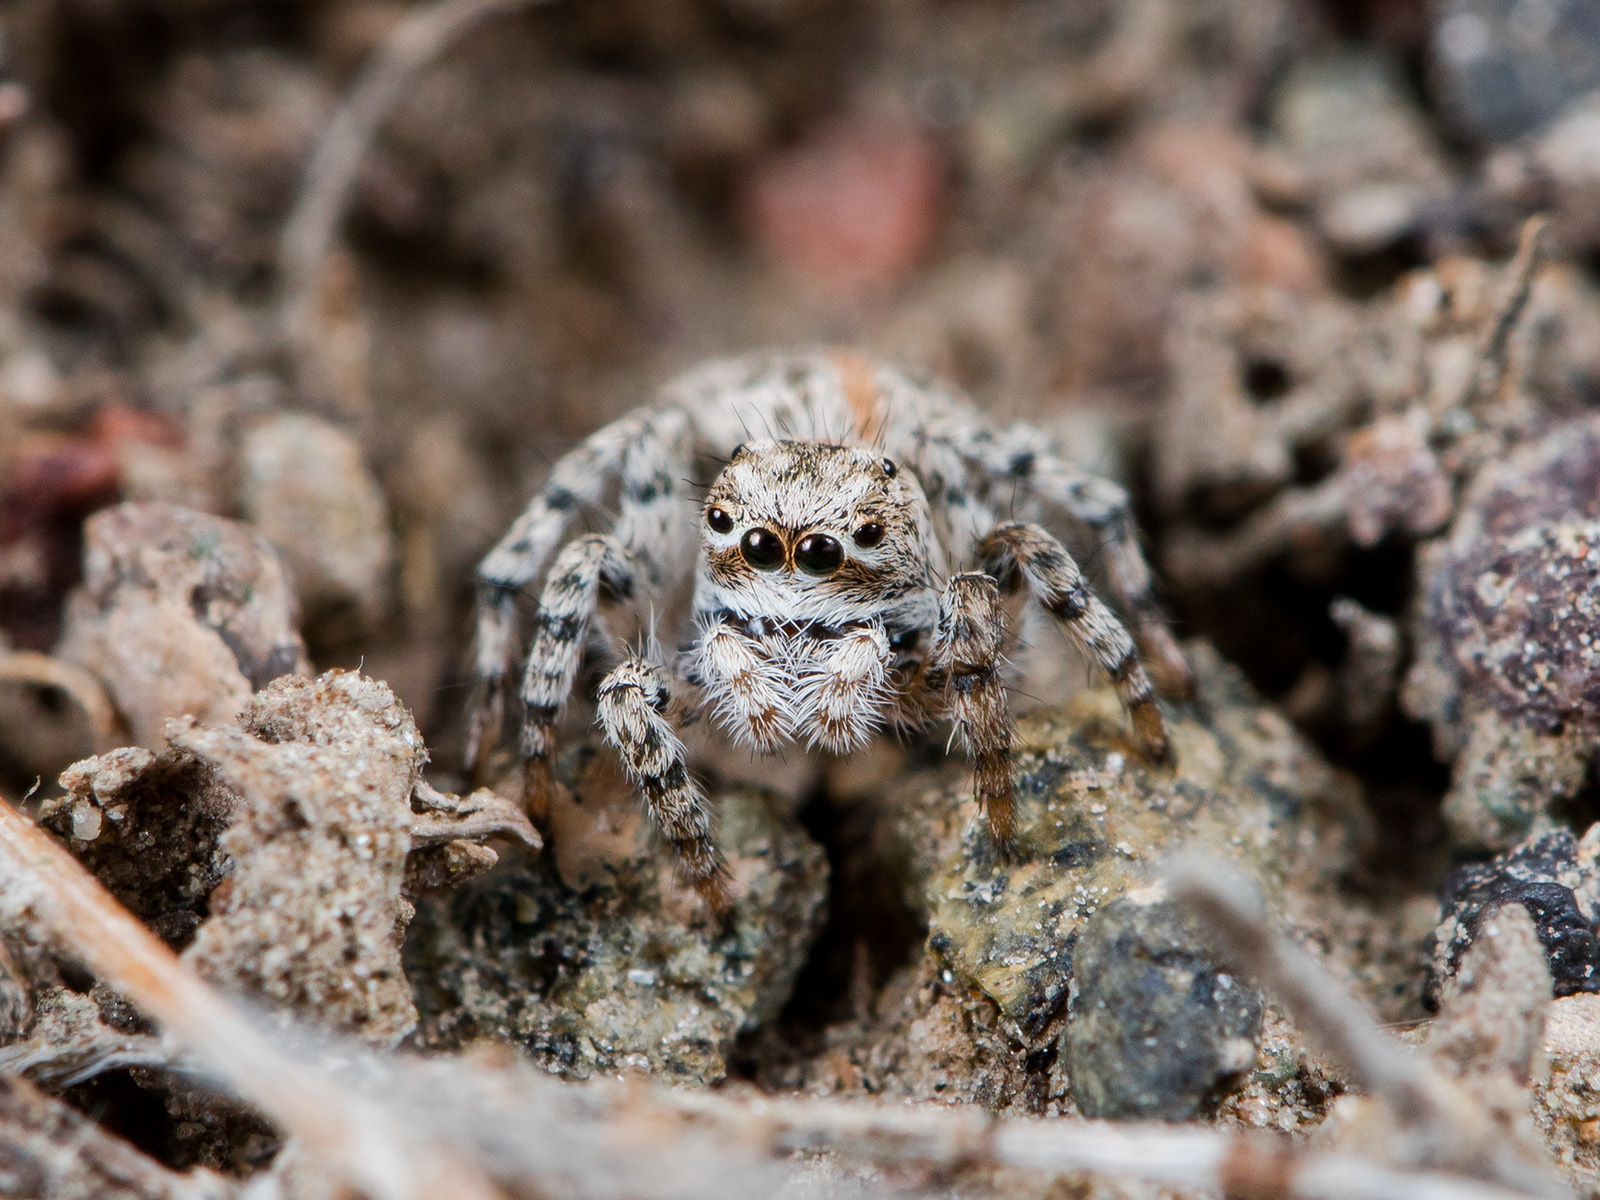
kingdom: Animalia
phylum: Arthropoda
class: Arachnida
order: Araneae
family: Salticidae
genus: Aelurillus
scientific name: Aelurillus dubatolovi
